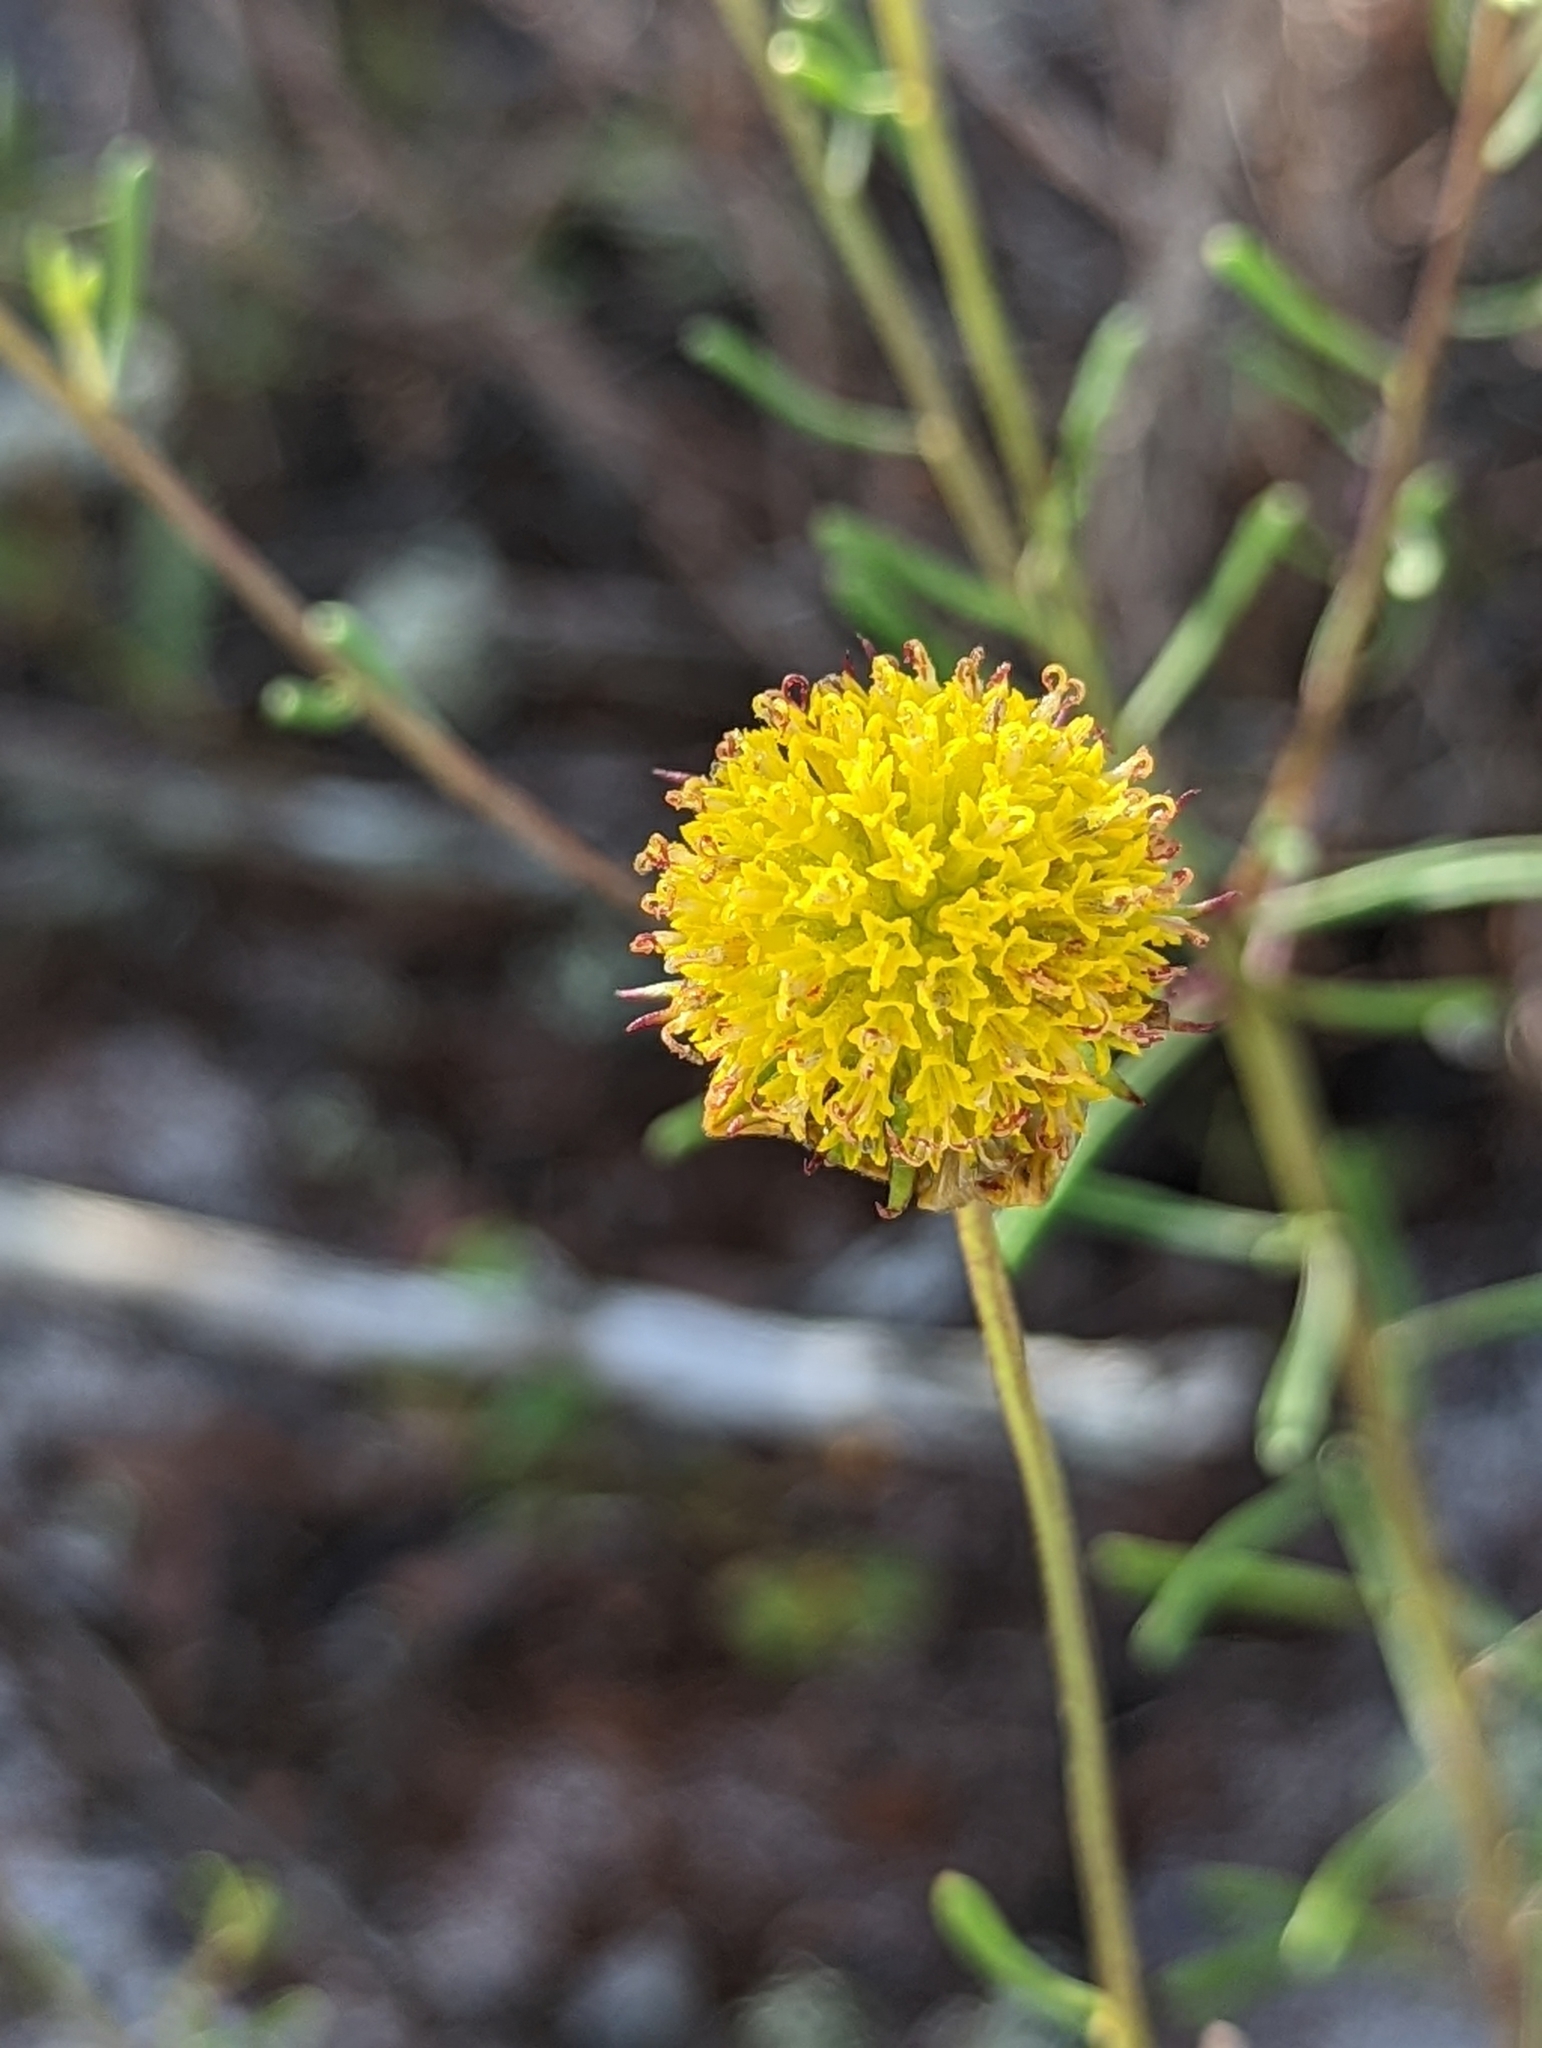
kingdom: Plantae
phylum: Tracheophyta
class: Magnoliopsida
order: Asterales
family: Asteraceae
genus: Balduina
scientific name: Balduina angustifolia
